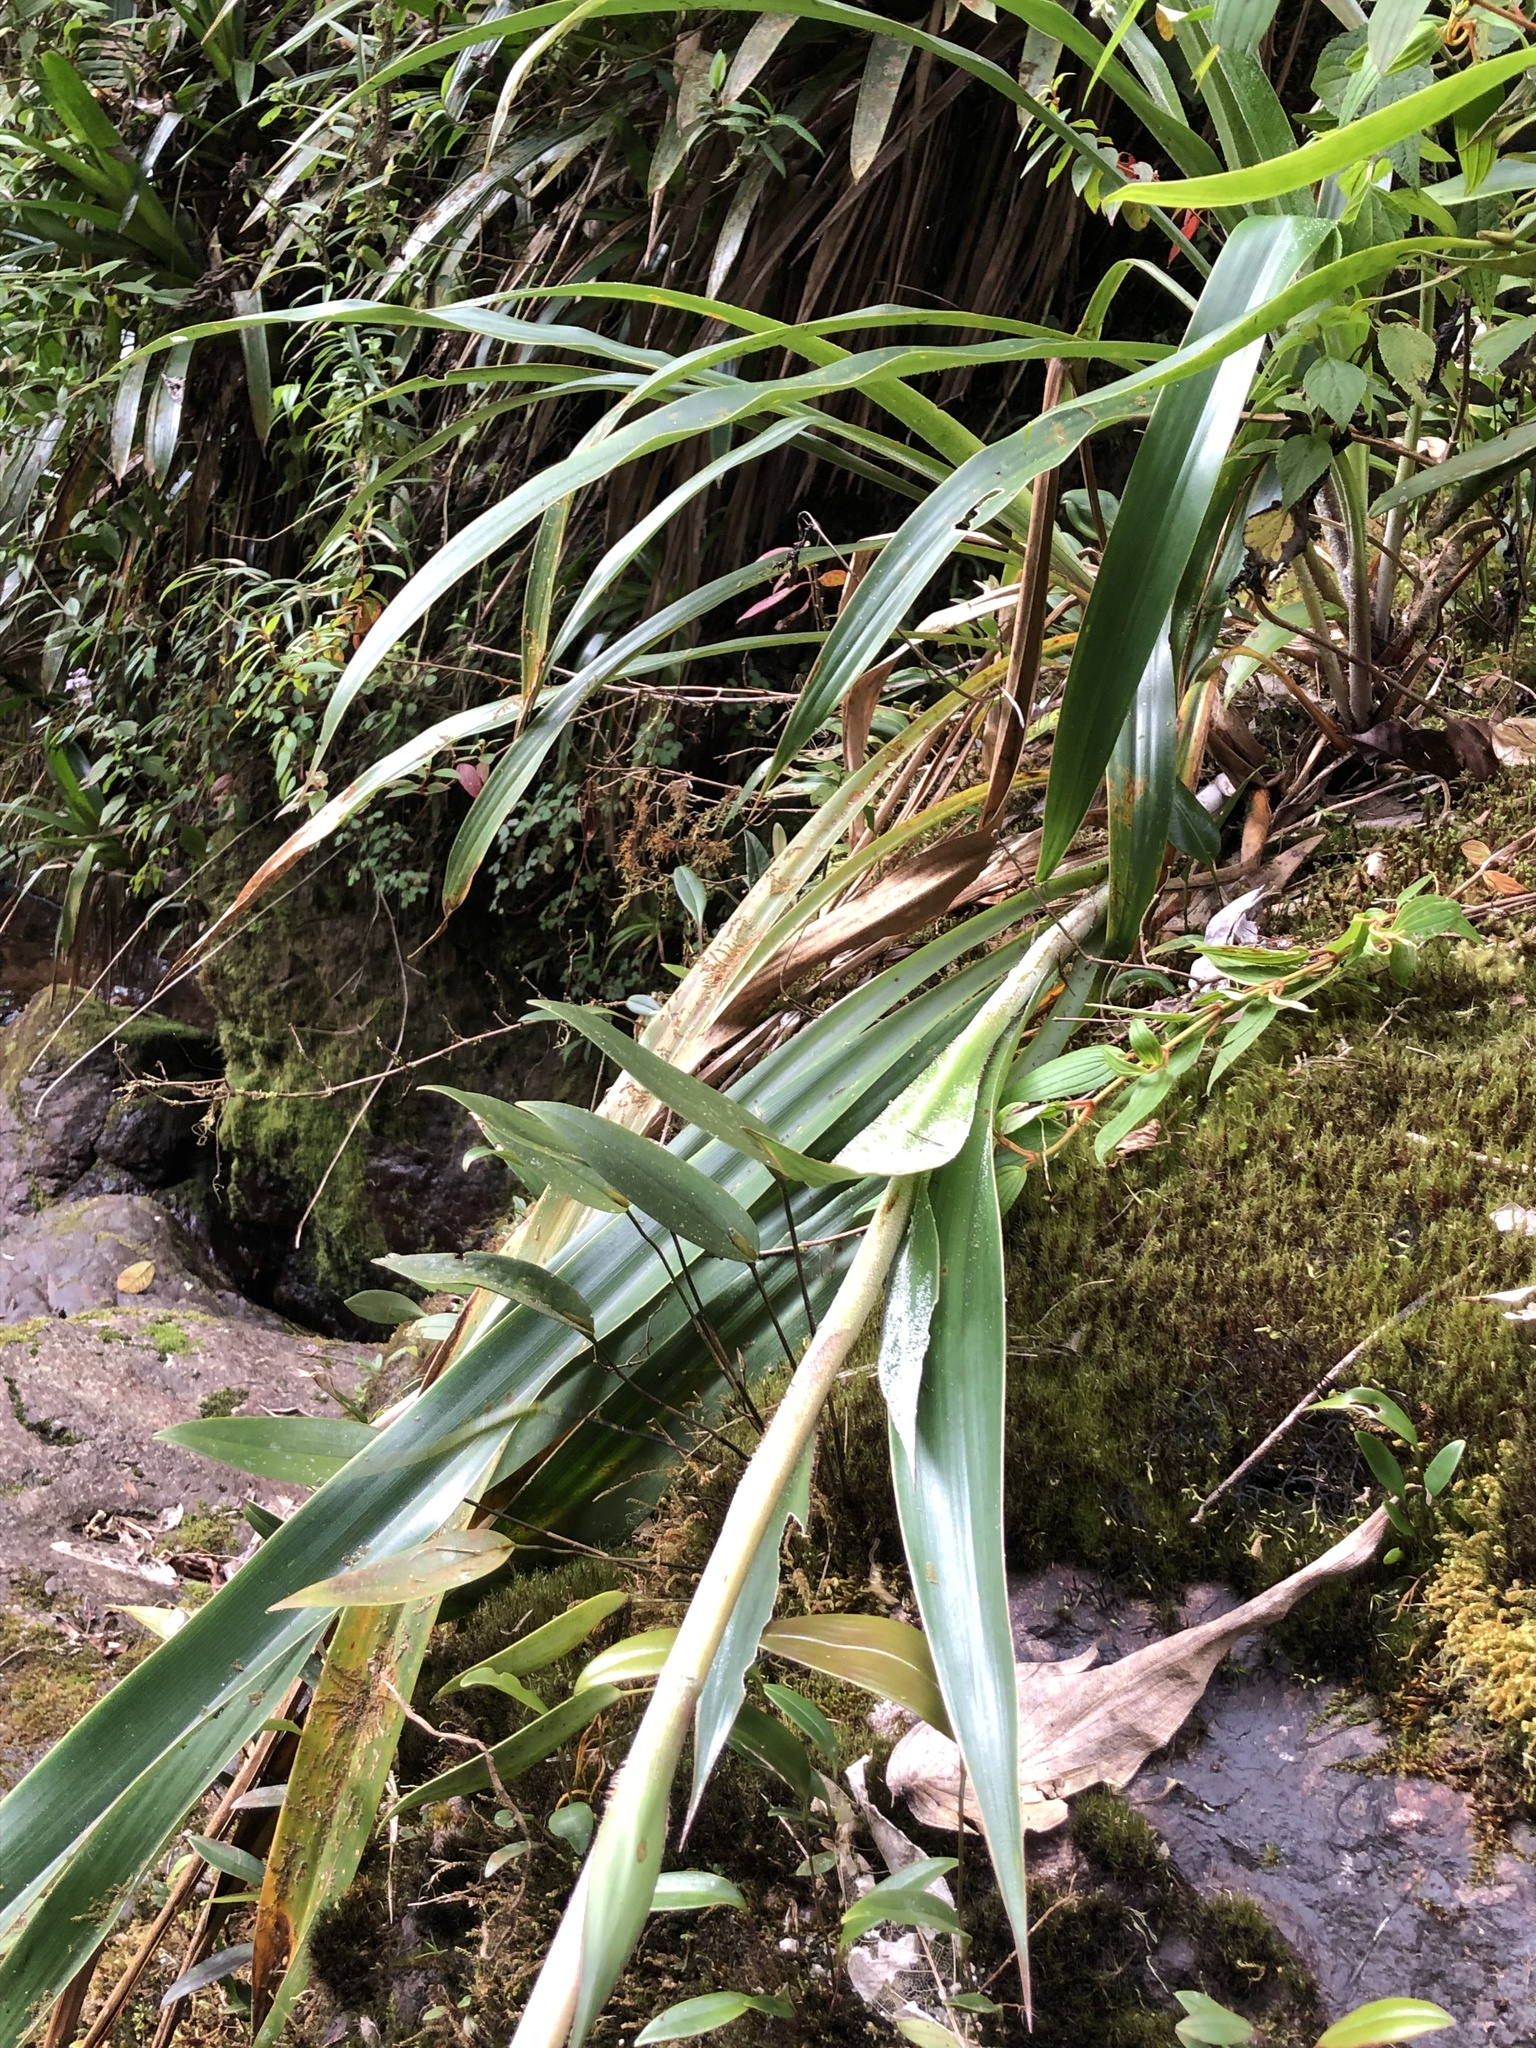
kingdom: Plantae
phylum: Tracheophyta
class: Liliopsida
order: Poales
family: Bromeliaceae
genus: Pitcairnia
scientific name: Pitcairnia trianae
